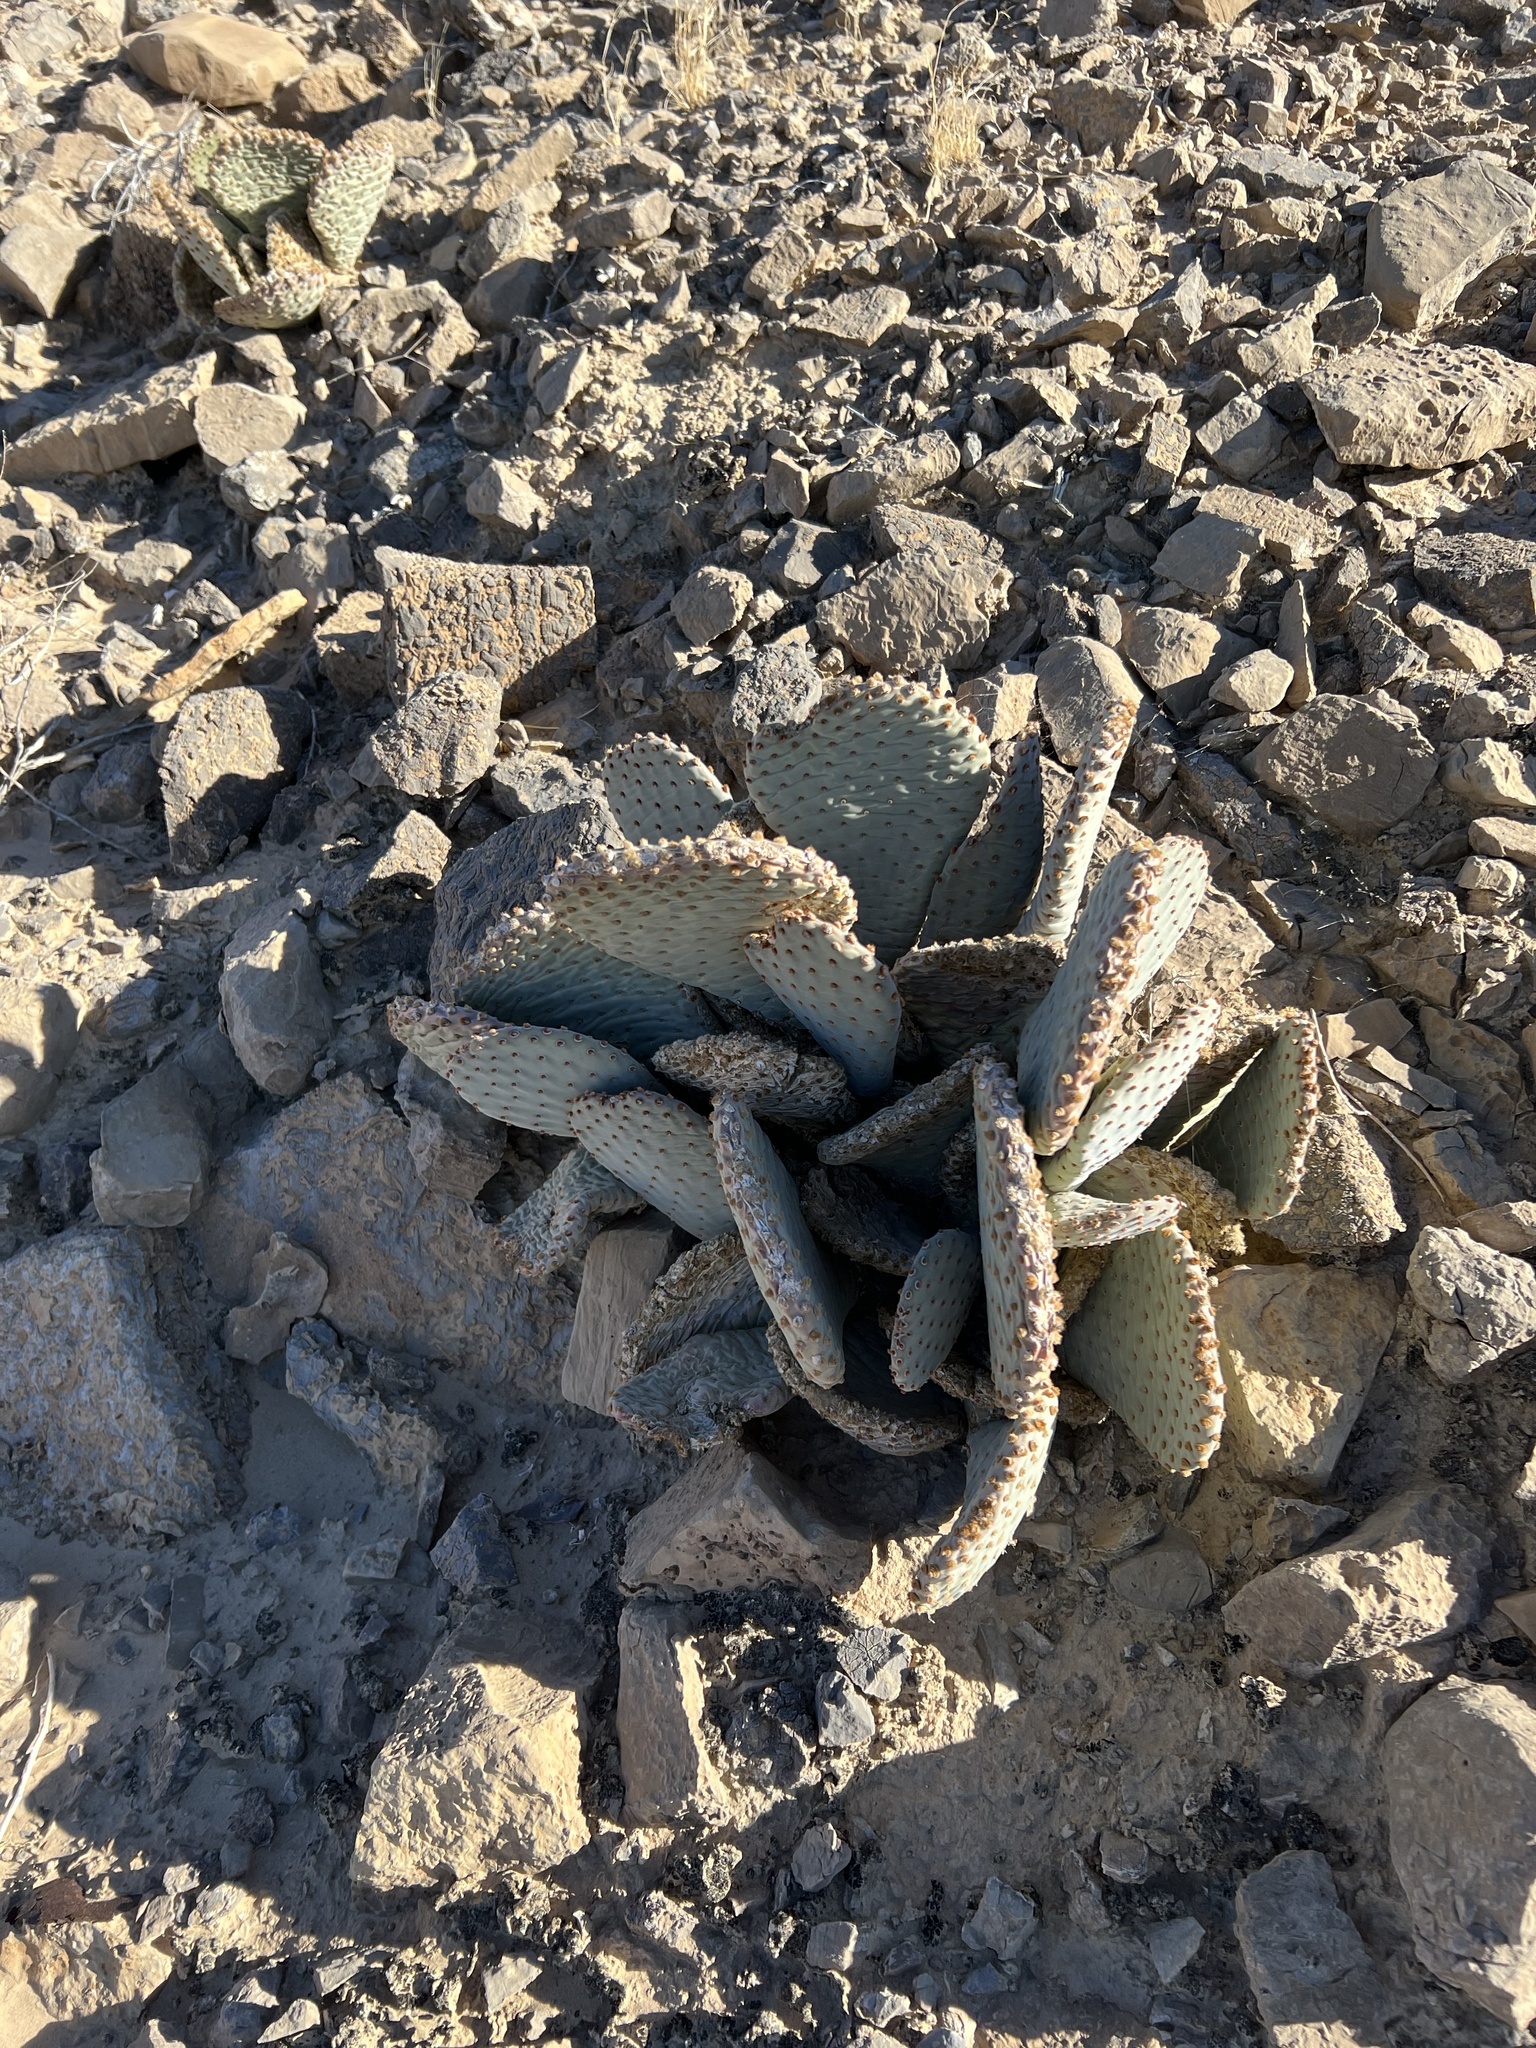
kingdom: Plantae
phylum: Tracheophyta
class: Magnoliopsida
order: Caryophyllales
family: Cactaceae
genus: Opuntia
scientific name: Opuntia basilaris
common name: Beavertail prickly-pear
